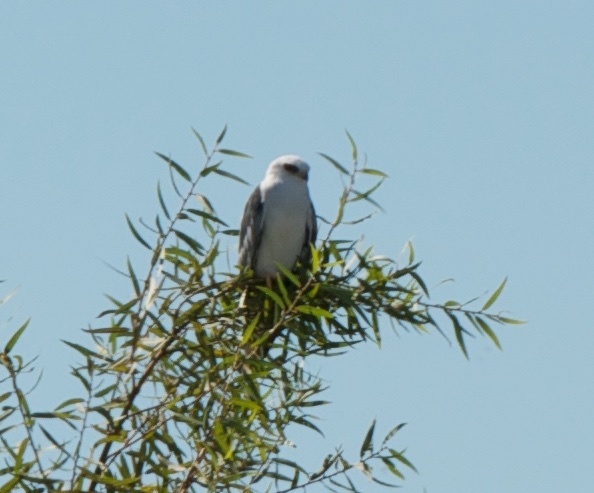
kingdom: Animalia
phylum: Chordata
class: Aves
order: Accipitriformes
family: Accipitridae
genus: Elanus
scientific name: Elanus leucurus
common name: White-tailed kite
